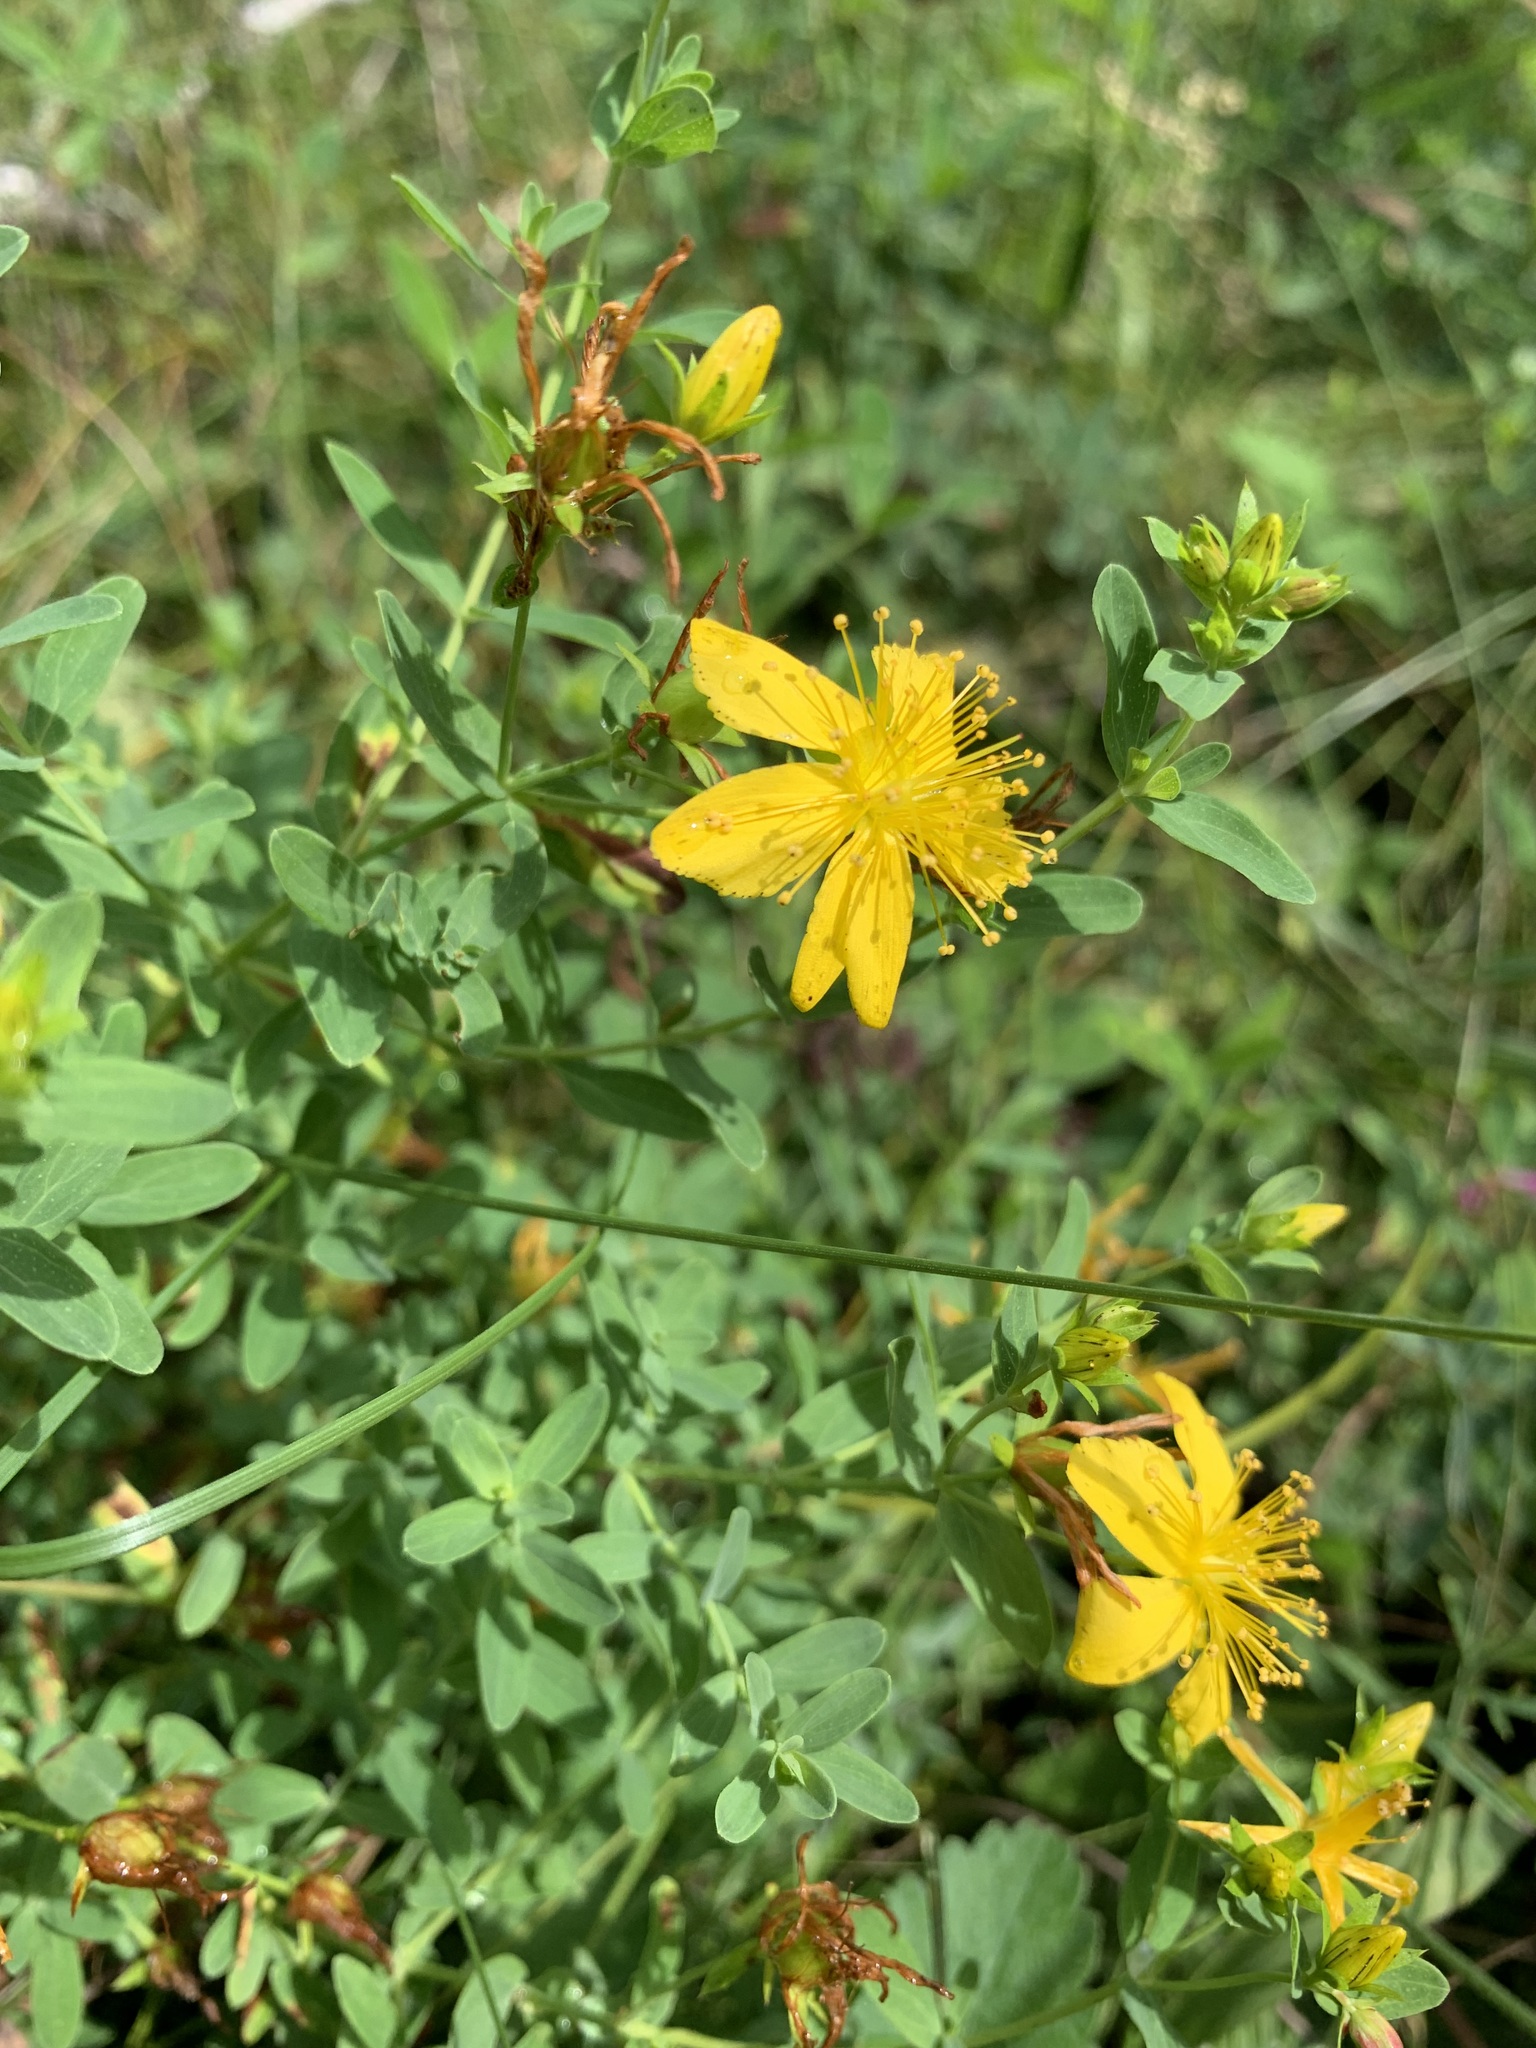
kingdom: Plantae
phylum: Tracheophyta
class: Magnoliopsida
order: Malpighiales
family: Hypericaceae
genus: Hypericum
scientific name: Hypericum perforatum
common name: Common st. johnswort
